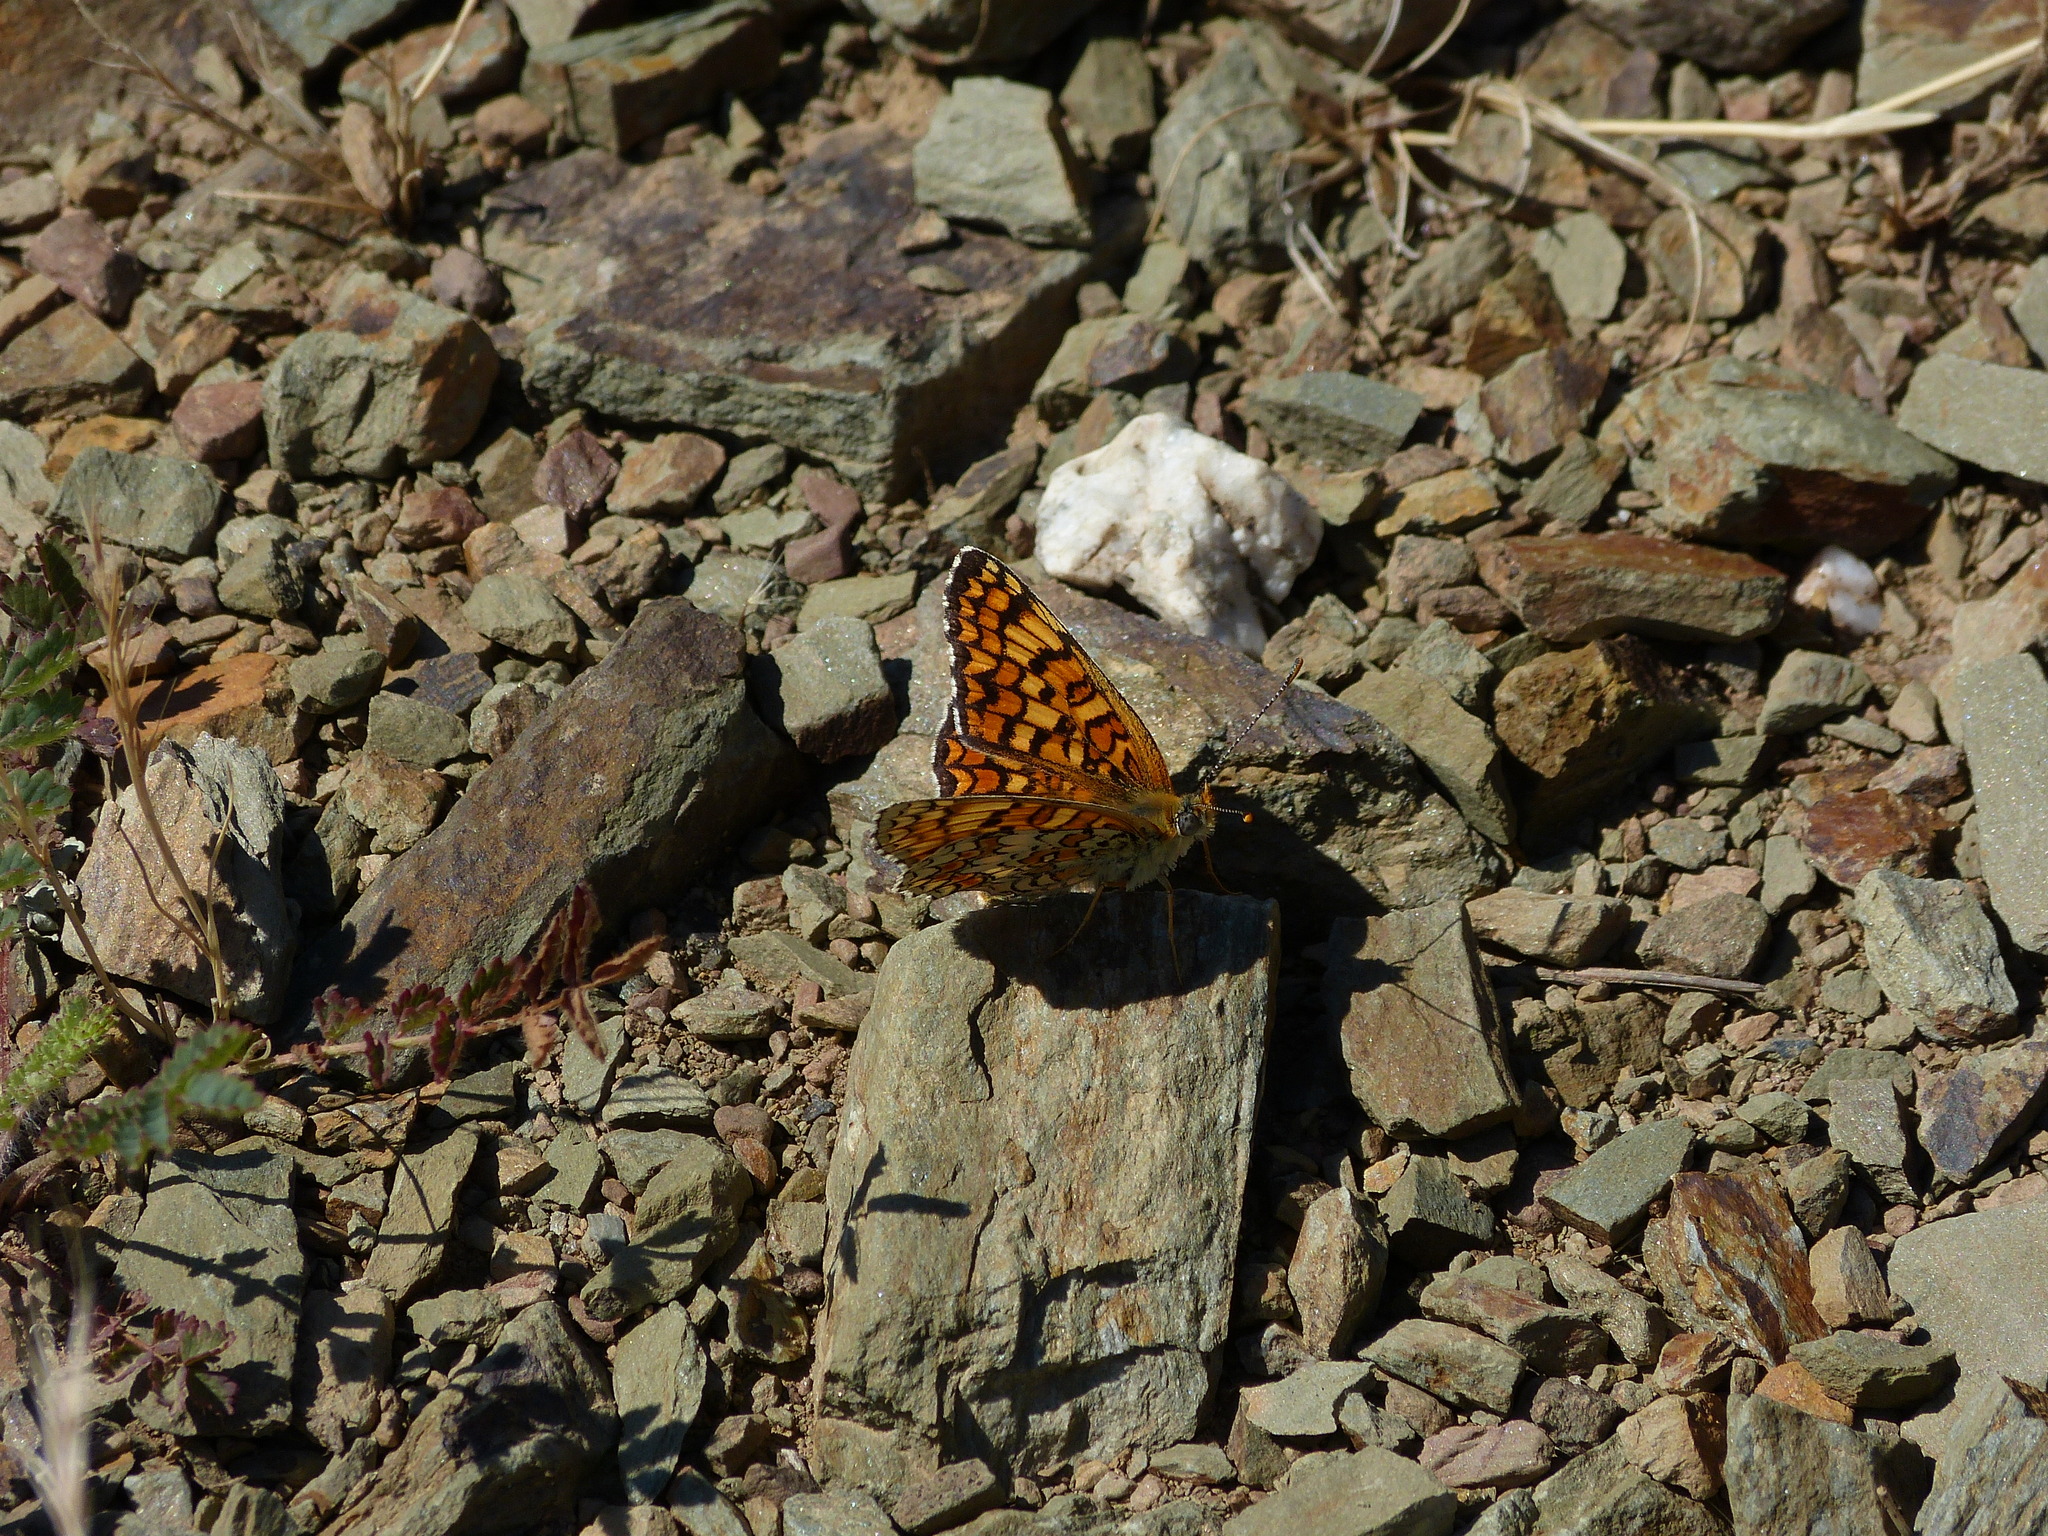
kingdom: Animalia
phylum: Arthropoda
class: Insecta
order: Lepidoptera
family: Nymphalidae
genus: Melitaea
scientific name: Melitaea phoebe
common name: Knapweed fritillary
